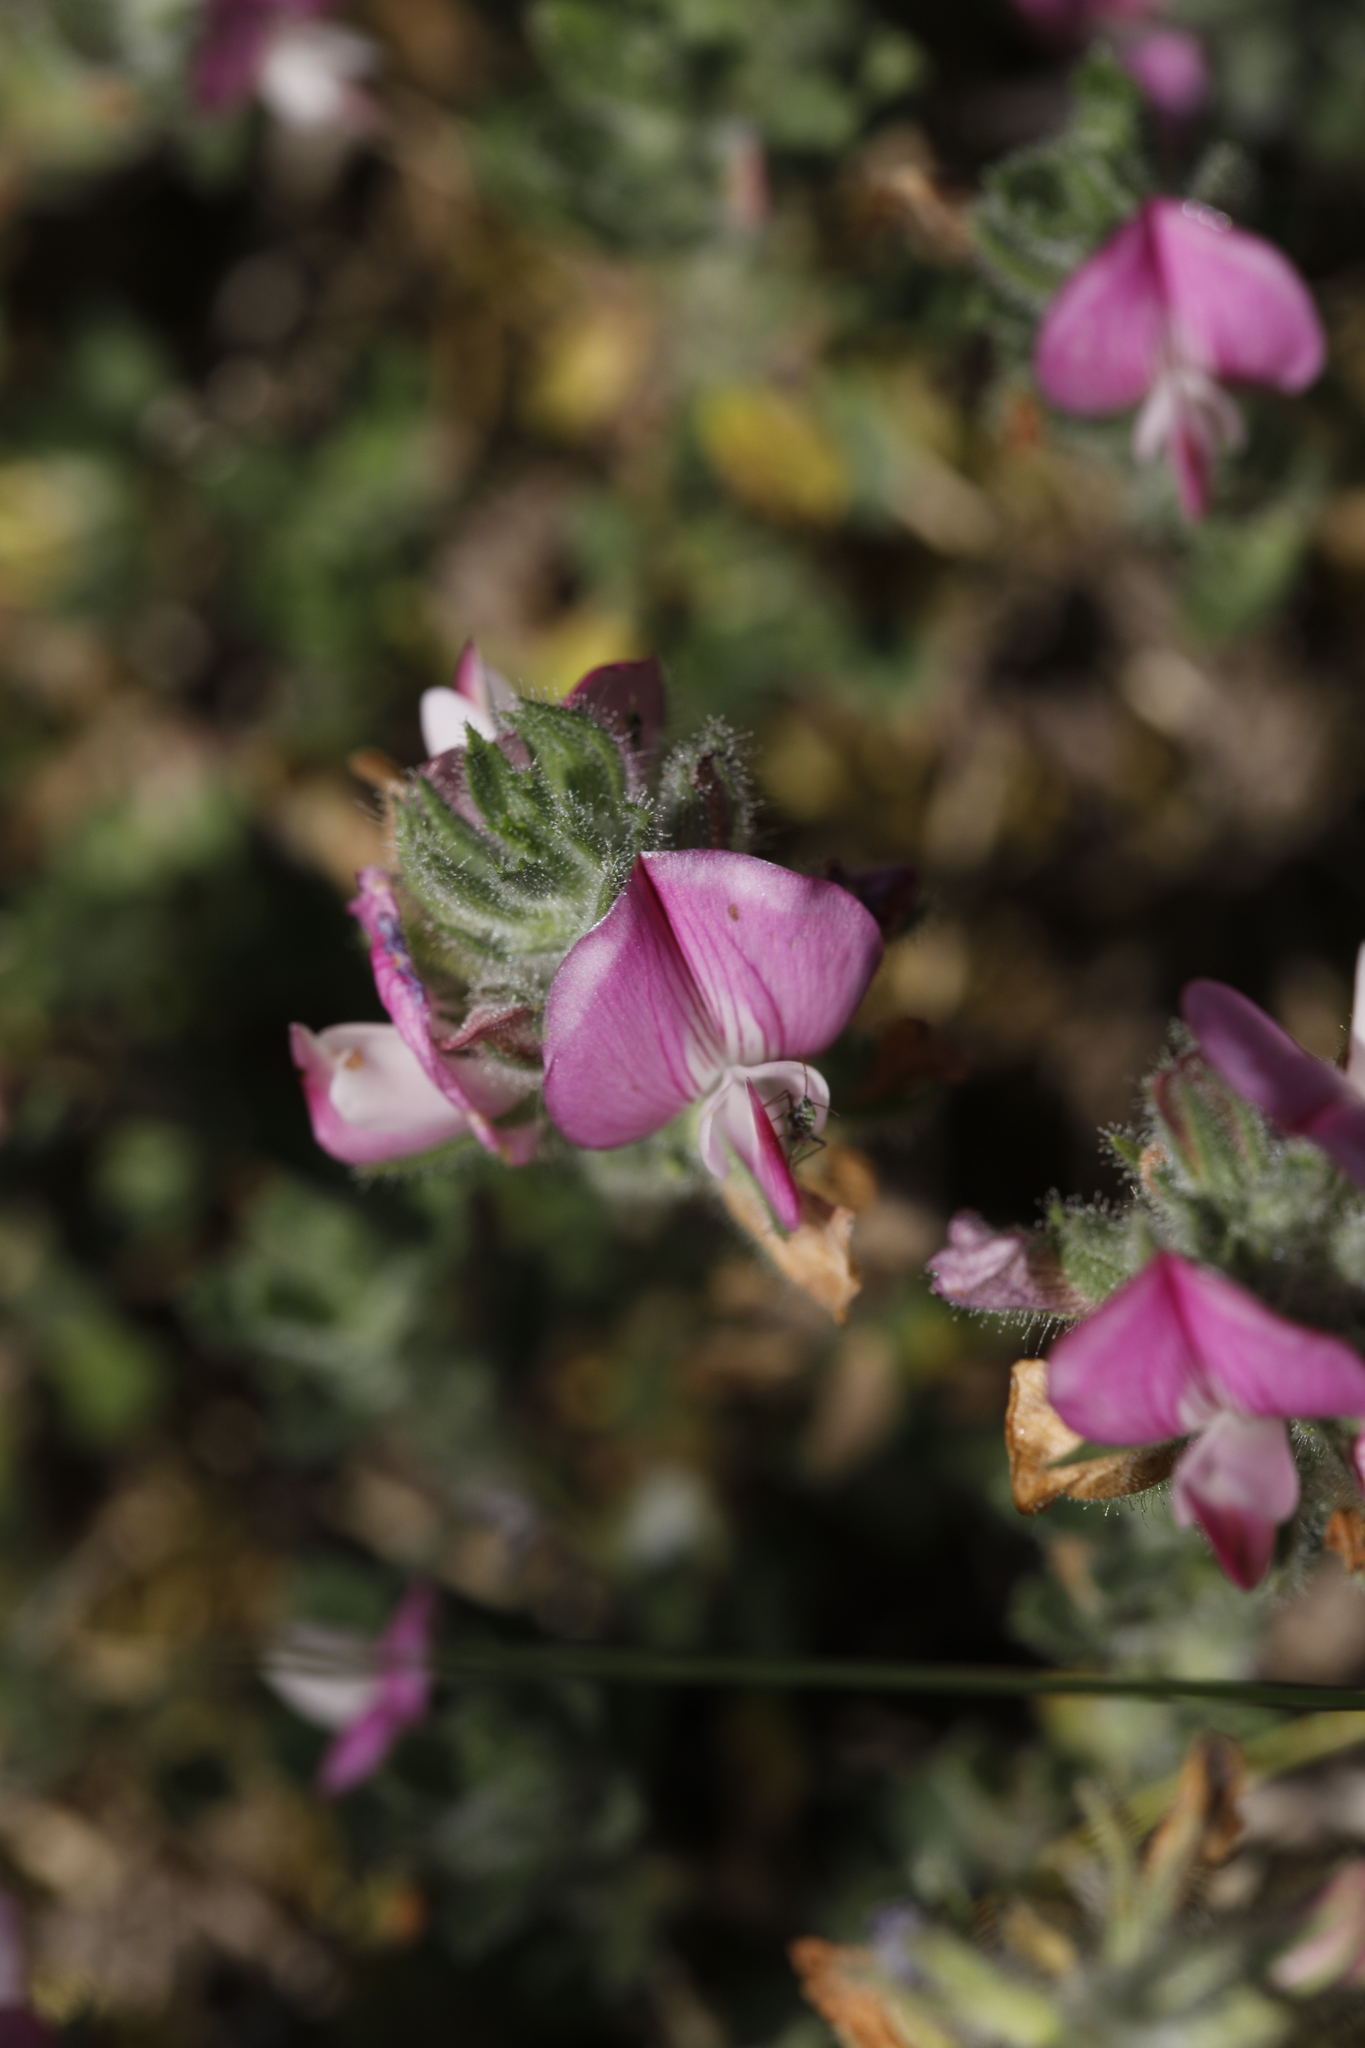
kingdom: Plantae
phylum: Tracheophyta
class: Magnoliopsida
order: Fabales
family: Fabaceae
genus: Ononis
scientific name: Ononis spinosa
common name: Spiny restharrow
